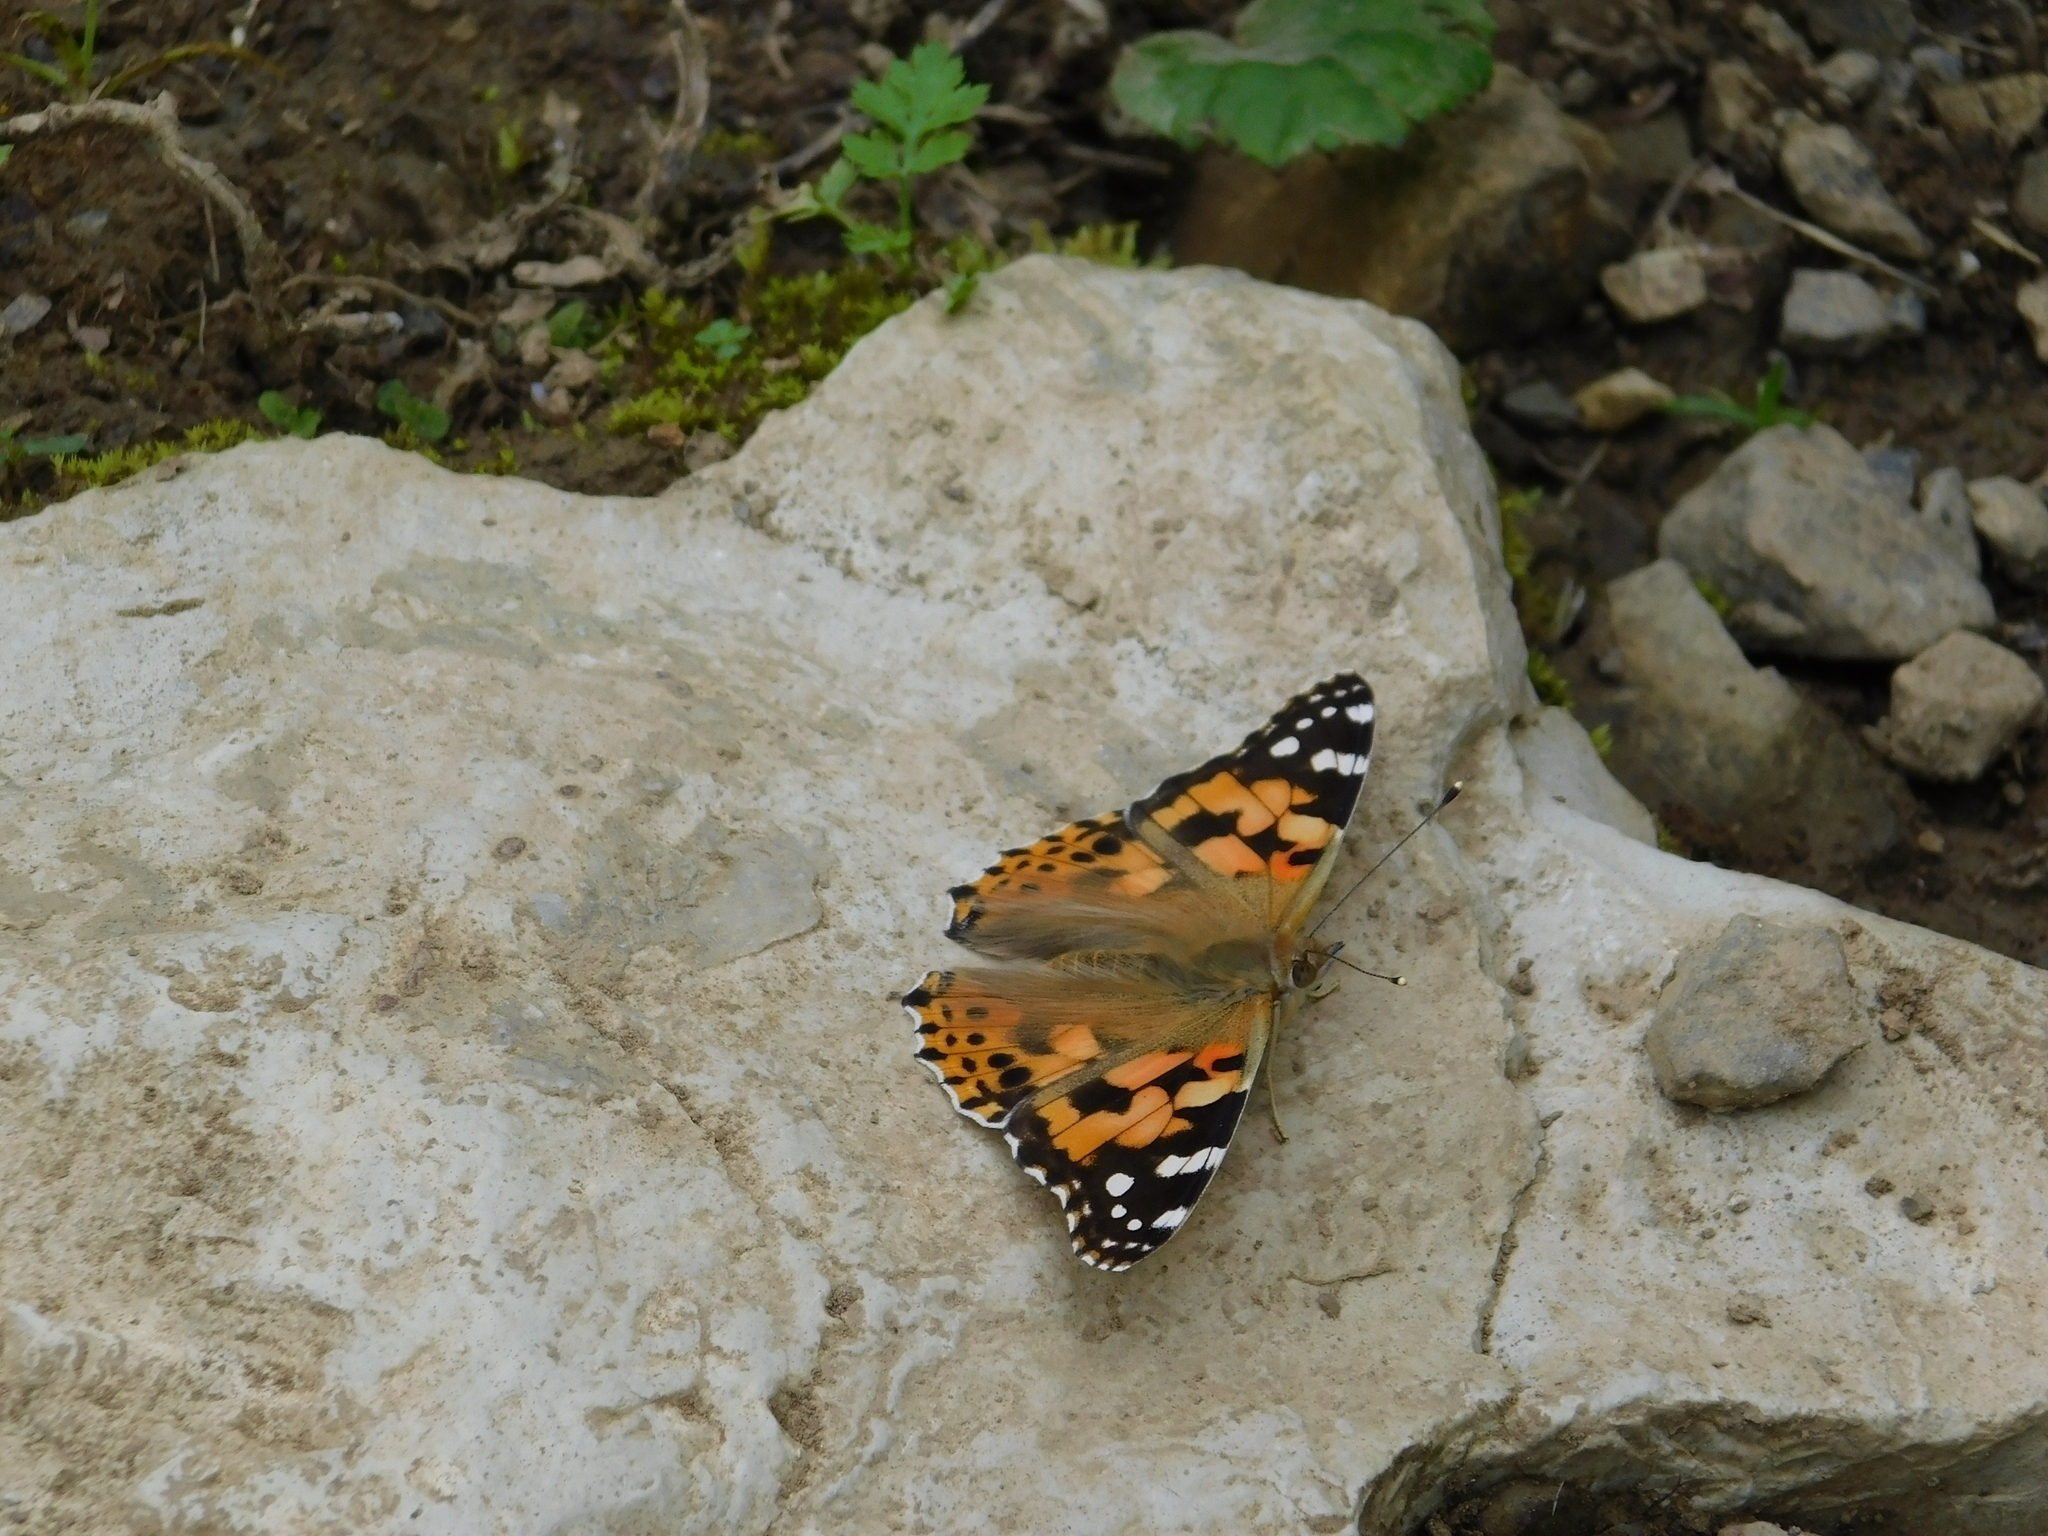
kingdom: Animalia
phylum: Arthropoda
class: Insecta
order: Lepidoptera
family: Nymphalidae
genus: Vanessa
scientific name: Vanessa cardui
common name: Painted lady
